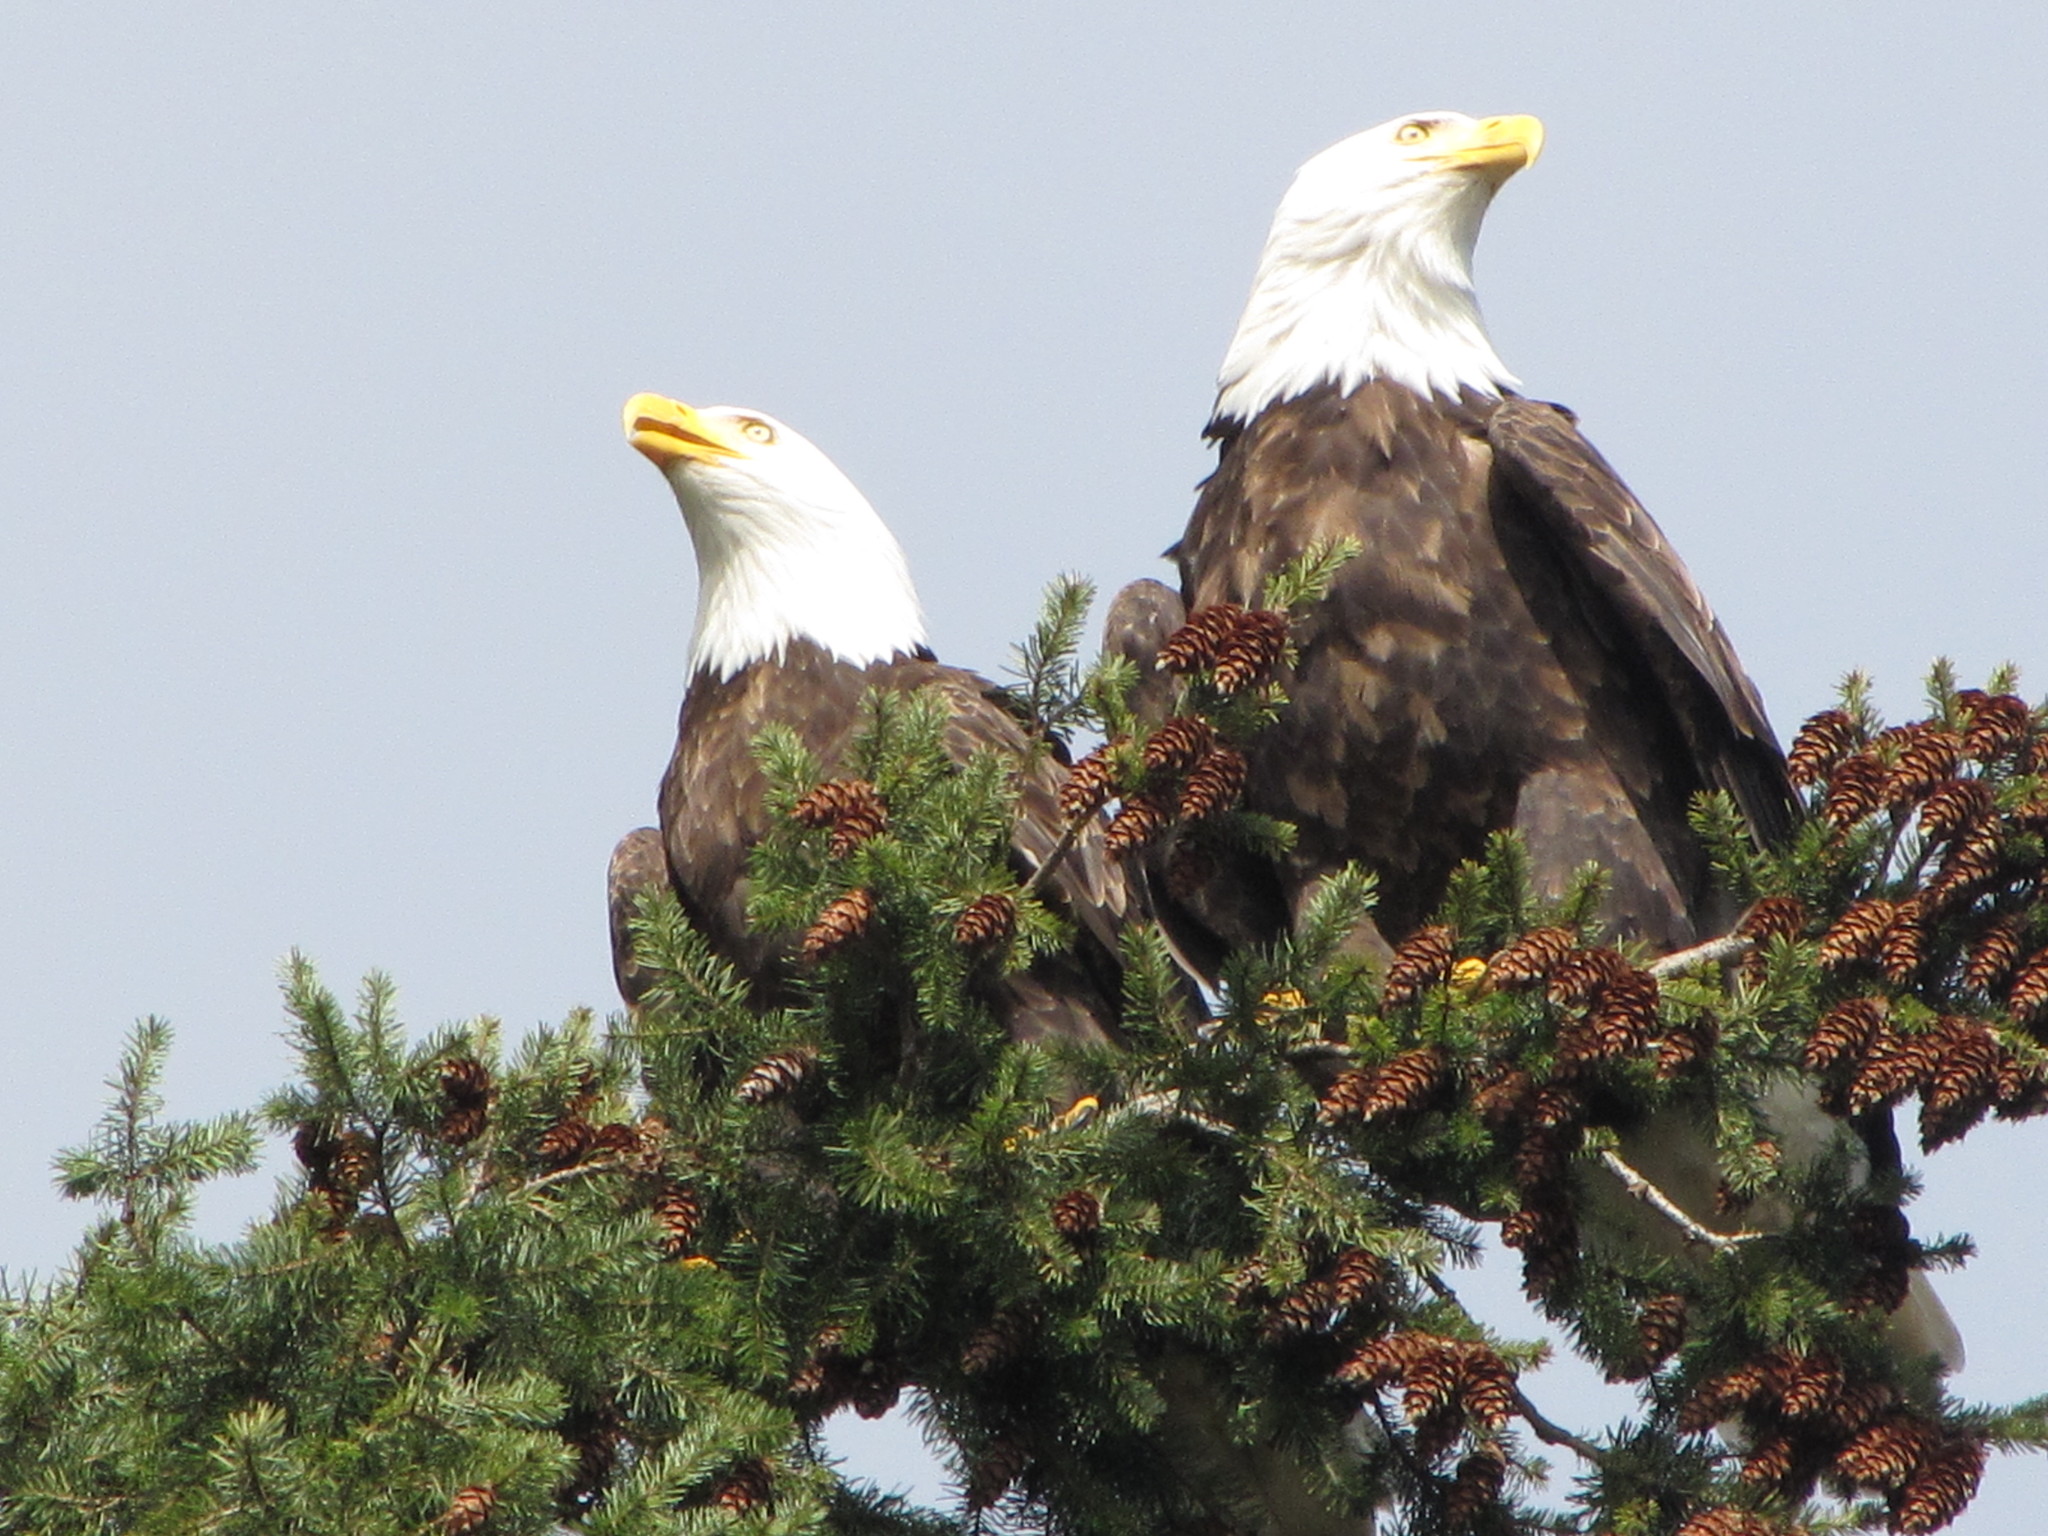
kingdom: Animalia
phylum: Chordata
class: Aves
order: Accipitriformes
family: Accipitridae
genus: Haliaeetus
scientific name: Haliaeetus leucocephalus
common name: Bald eagle
